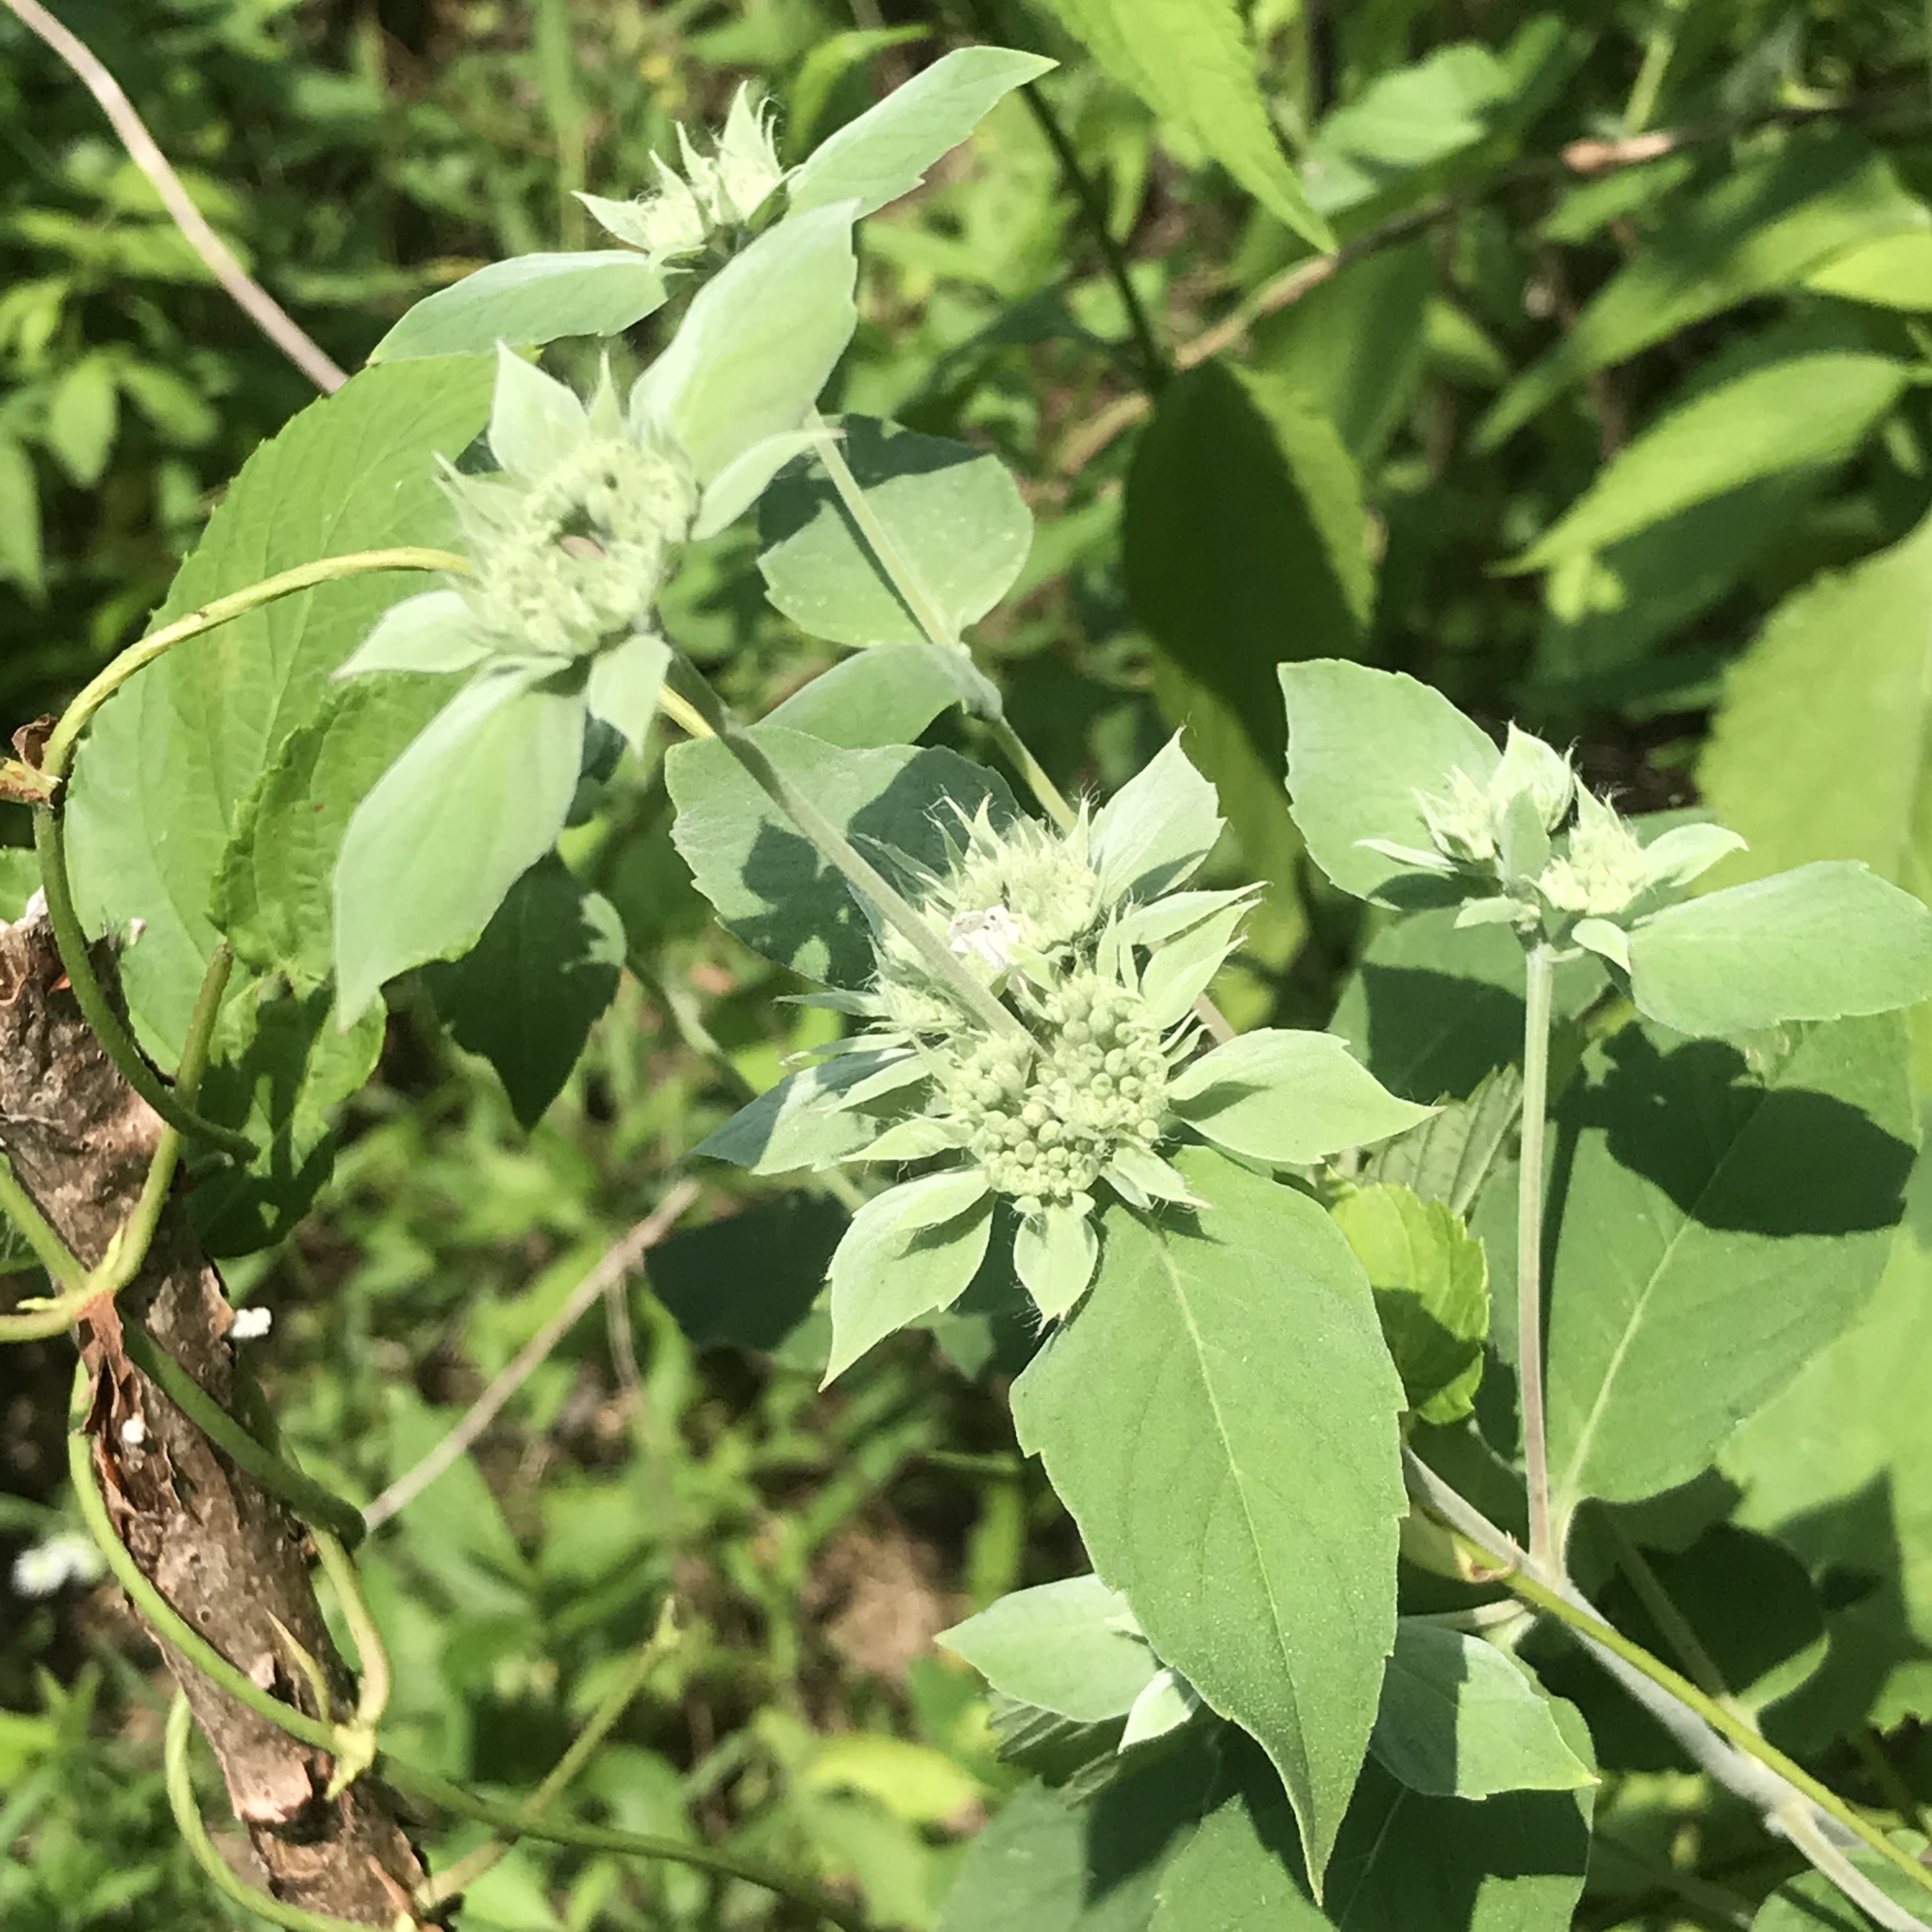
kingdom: Plantae
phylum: Tracheophyta
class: Magnoliopsida
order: Lamiales
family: Lamiaceae
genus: Pycnanthemum
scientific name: Pycnanthemum incanum
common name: Hoary mountain-mint
